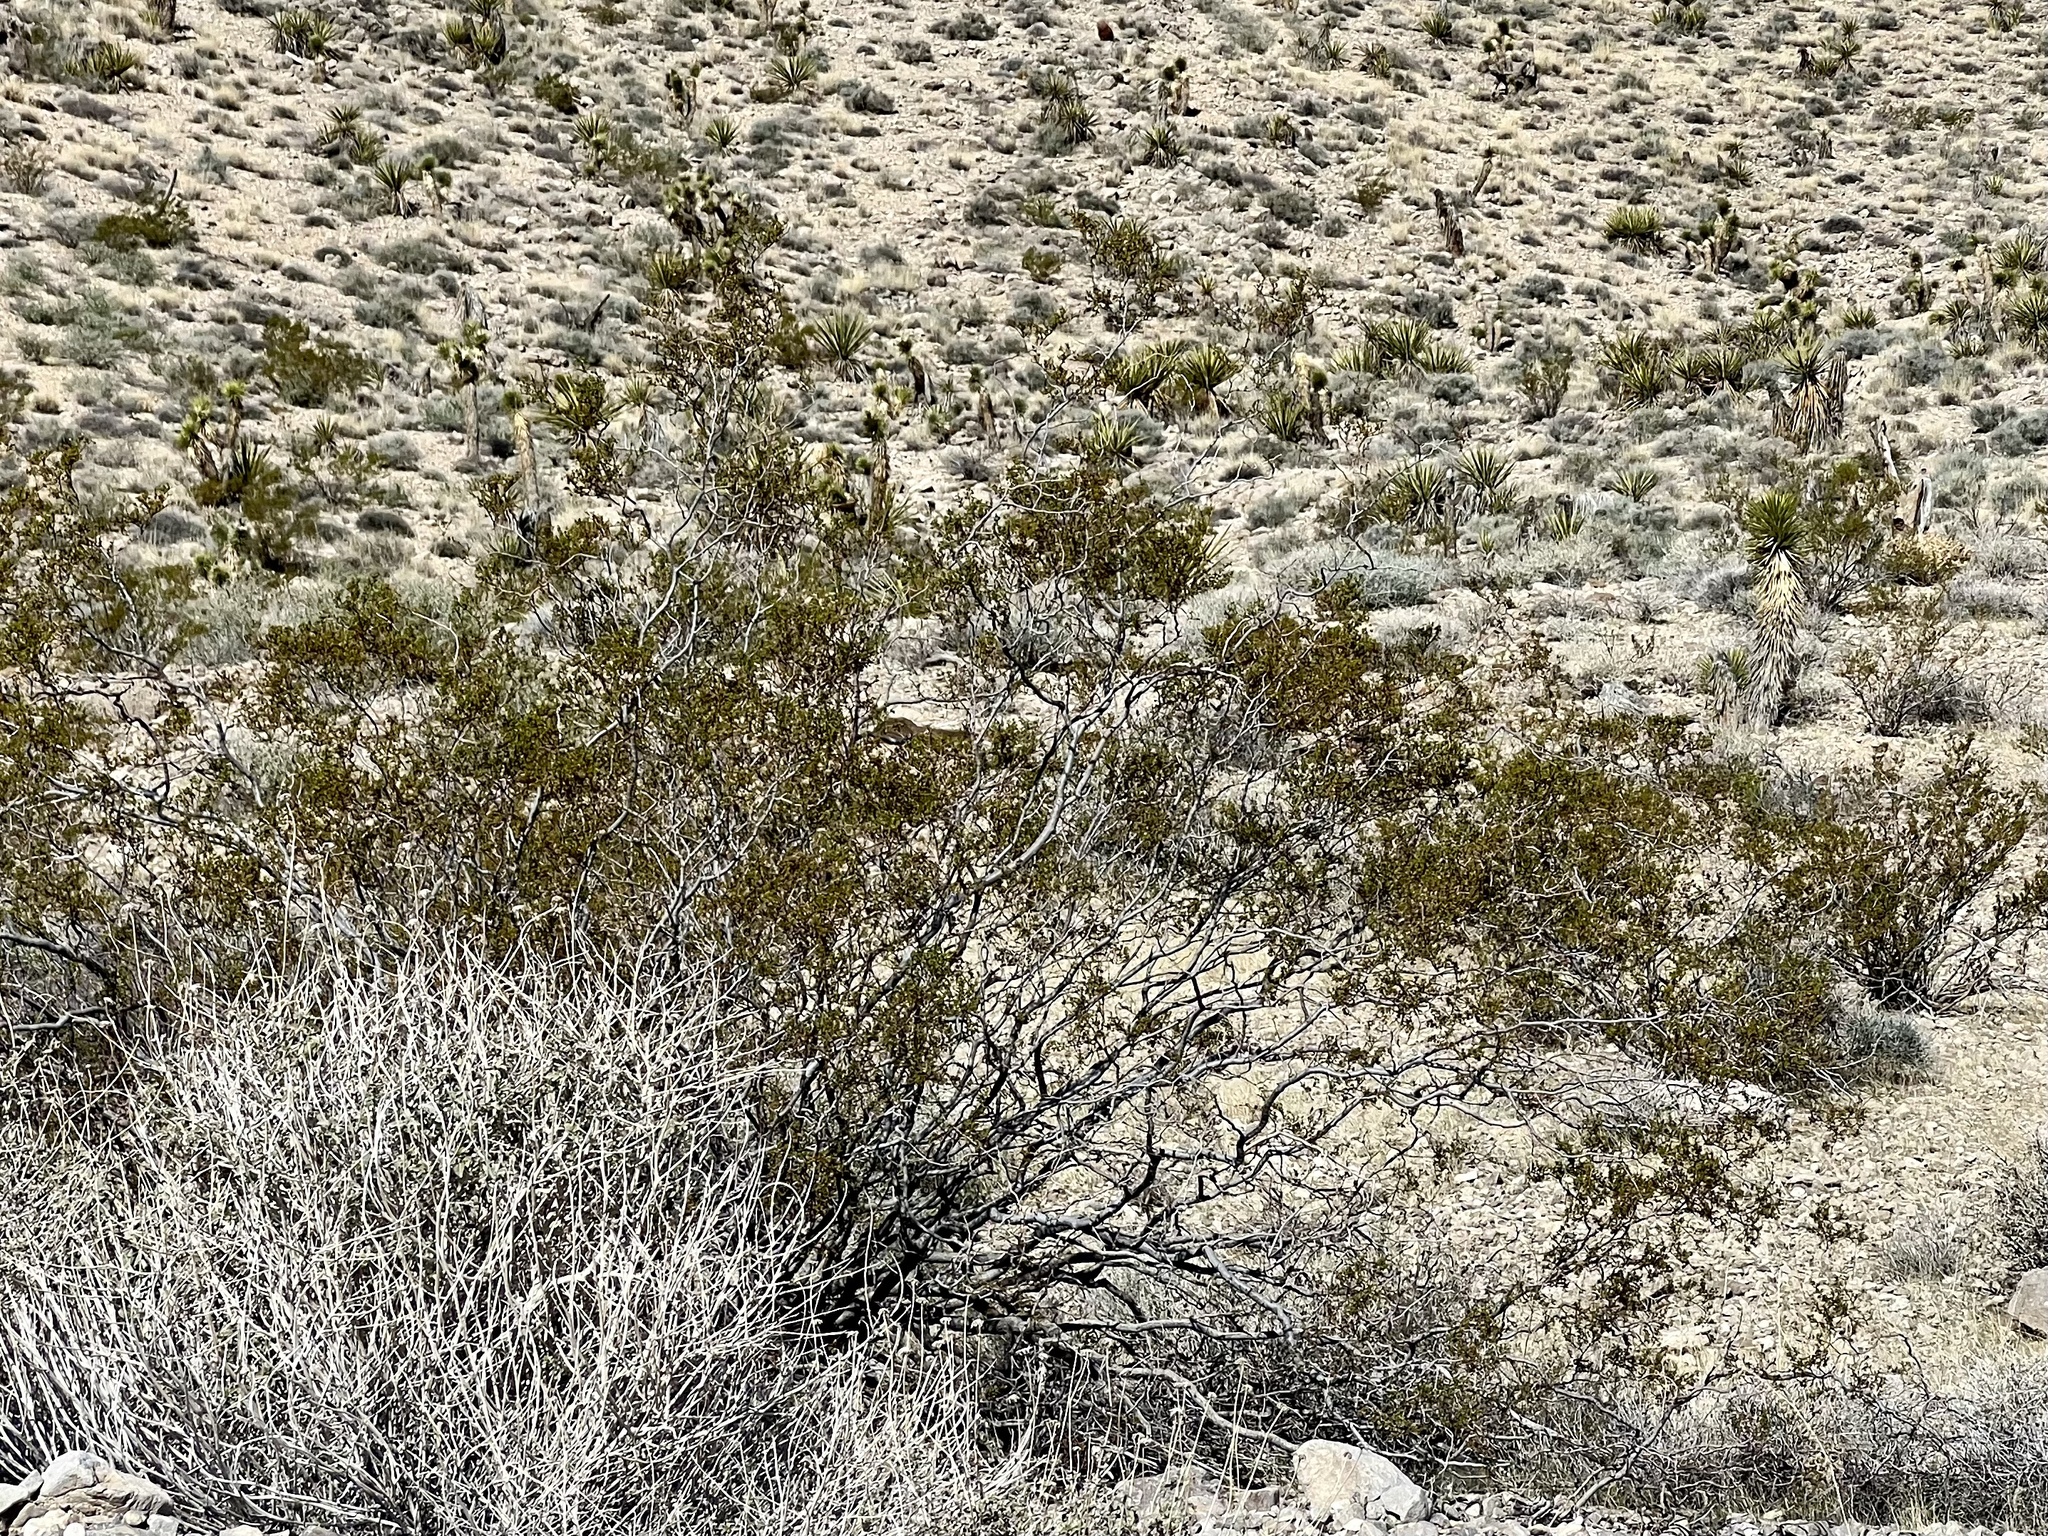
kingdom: Plantae
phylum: Tracheophyta
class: Magnoliopsida
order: Zygophyllales
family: Zygophyllaceae
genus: Larrea
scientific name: Larrea tridentata
